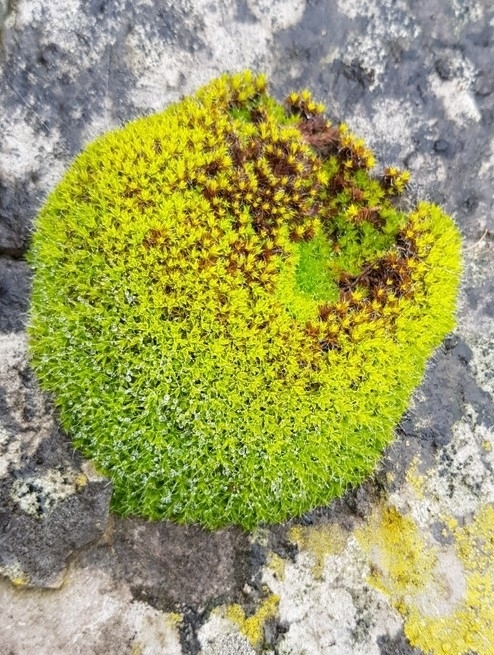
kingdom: Plantae
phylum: Bryophyta
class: Bryopsida
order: Pottiales
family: Pottiaceae
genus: Syntrichia
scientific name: Syntrichia ruralis
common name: Sidewalk screw moss
